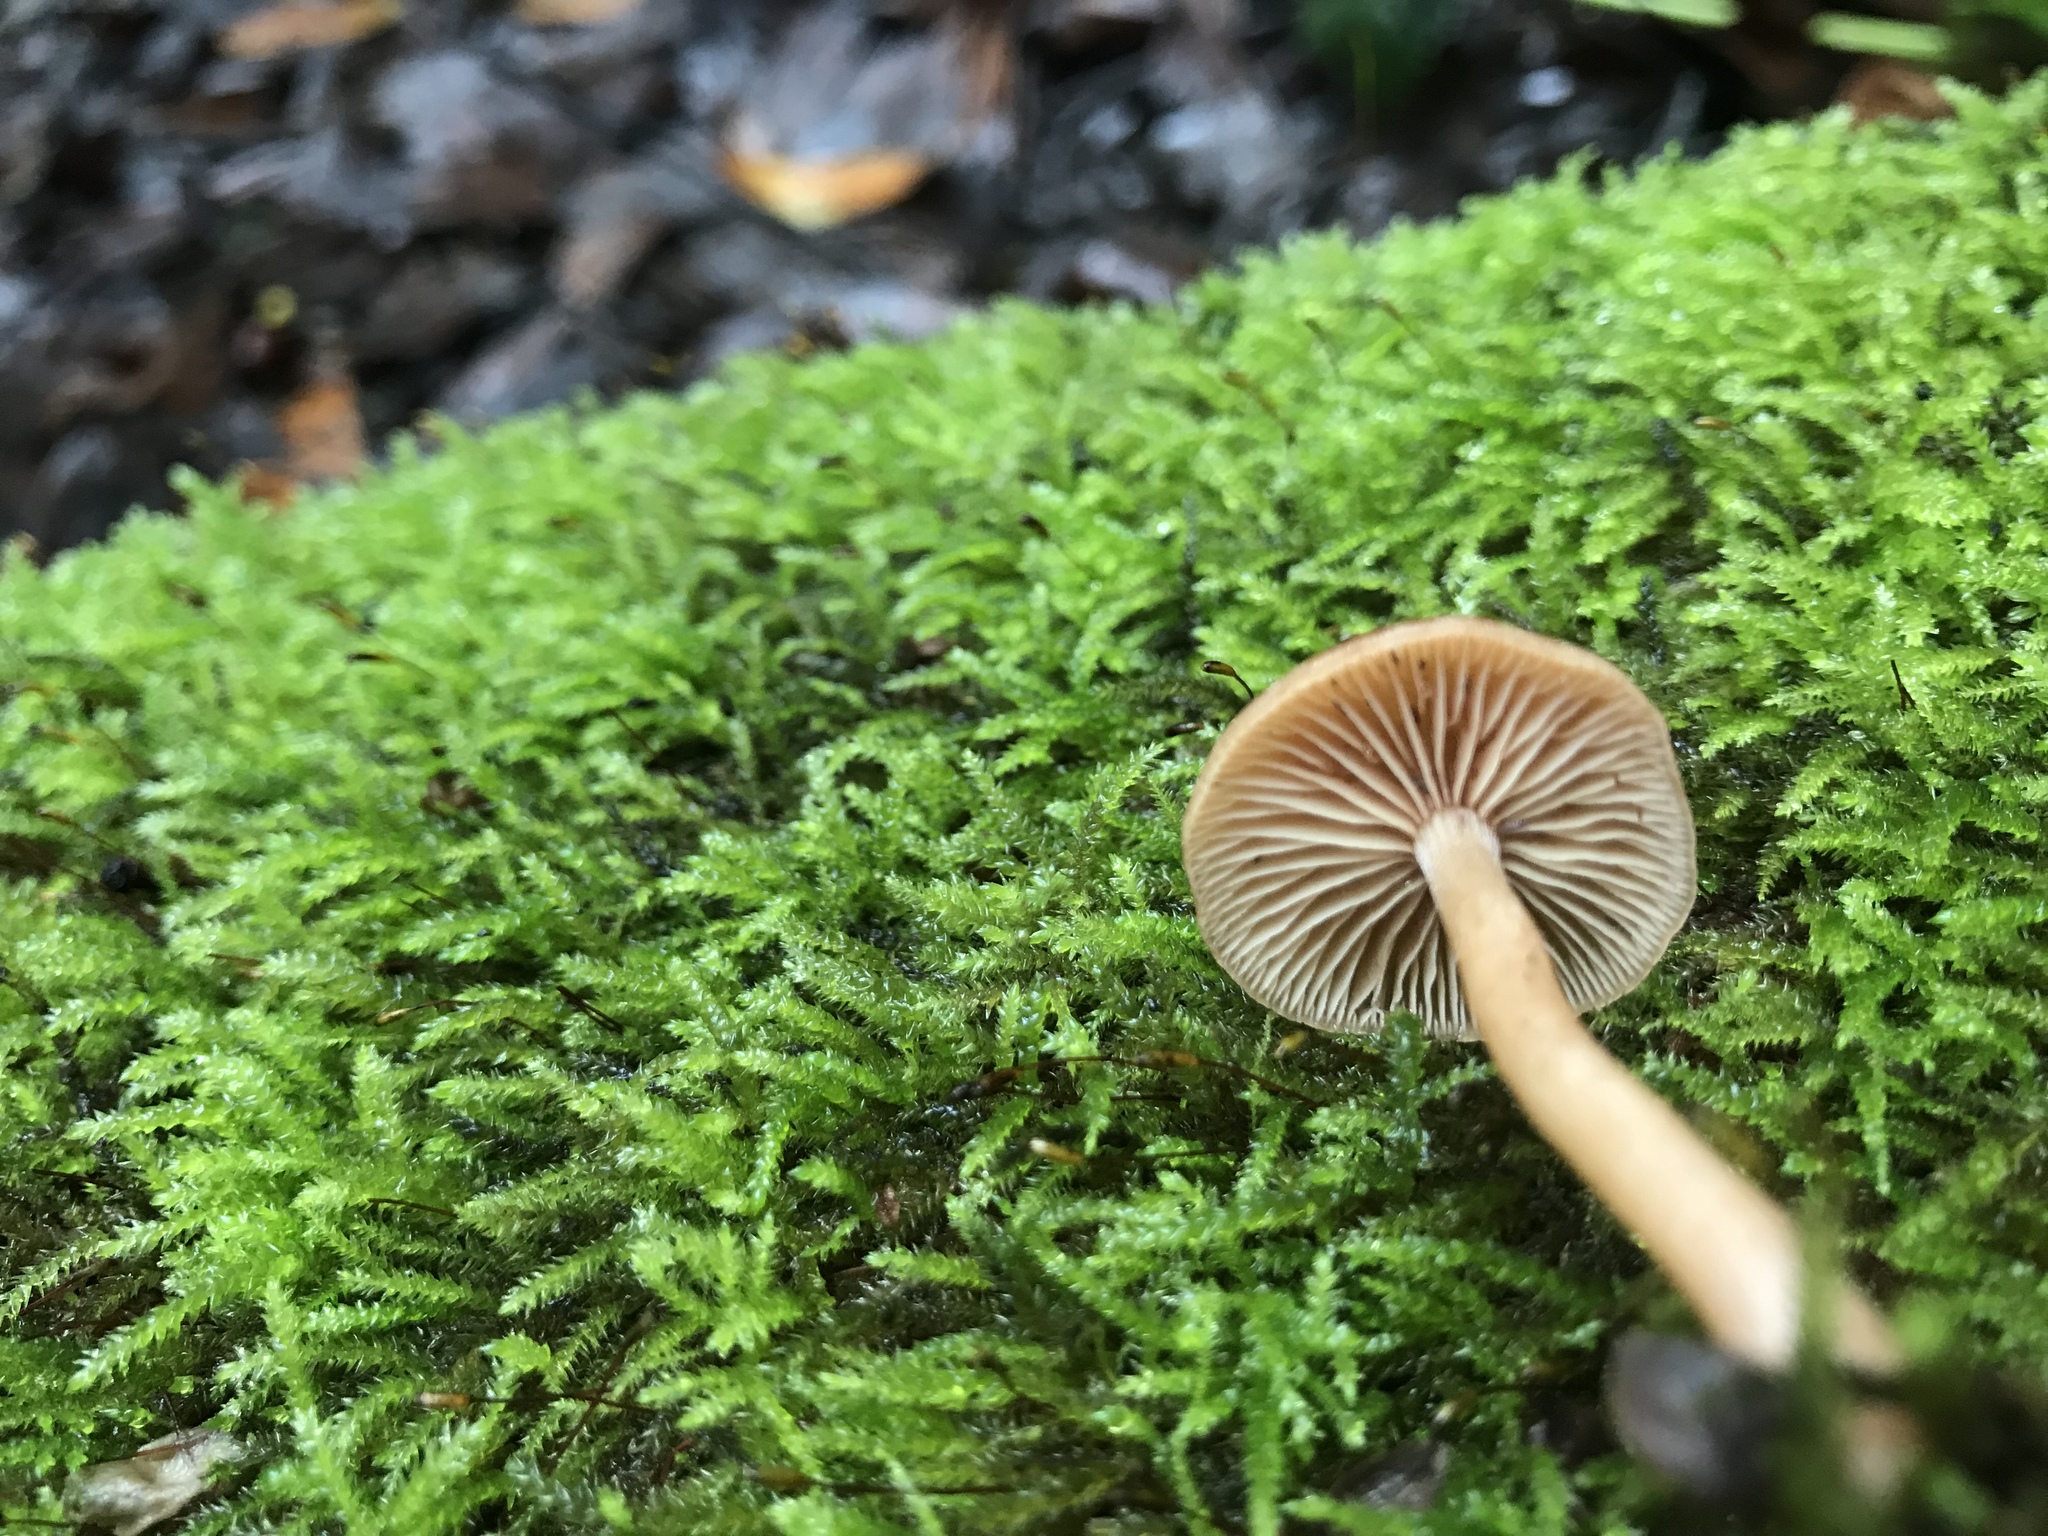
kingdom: Fungi
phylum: Basidiomycota
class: Agaricomycetes
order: Agaricales
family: Tubariaceae
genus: Tubaria
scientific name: Tubaria furfuracea
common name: Scurfy twiglet
